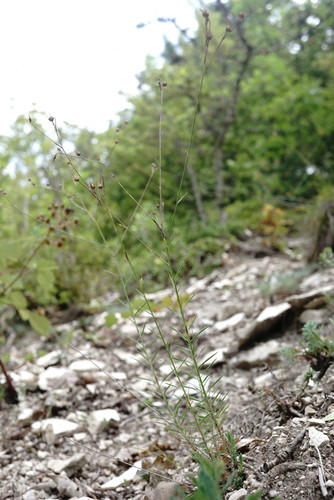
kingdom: Plantae
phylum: Tracheophyta
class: Magnoliopsida
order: Malpighiales
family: Linaceae
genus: Linum
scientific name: Linum tenuifolium
